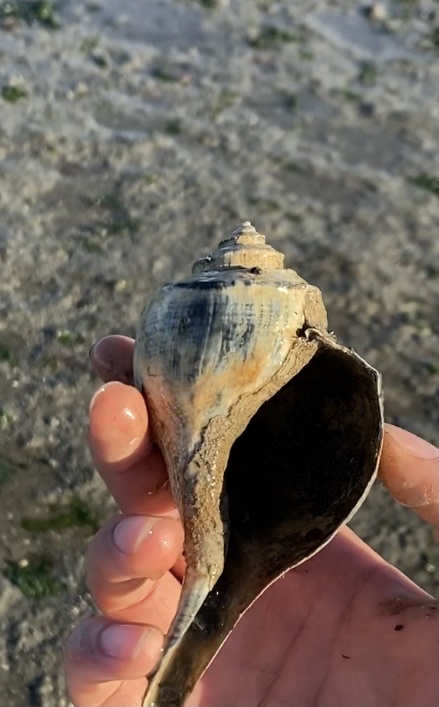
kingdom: Animalia
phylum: Mollusca
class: Gastropoda
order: Neogastropoda
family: Busyconidae
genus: Busycotypus
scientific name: Busycotypus canaliculatus
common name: Channeled whelk
